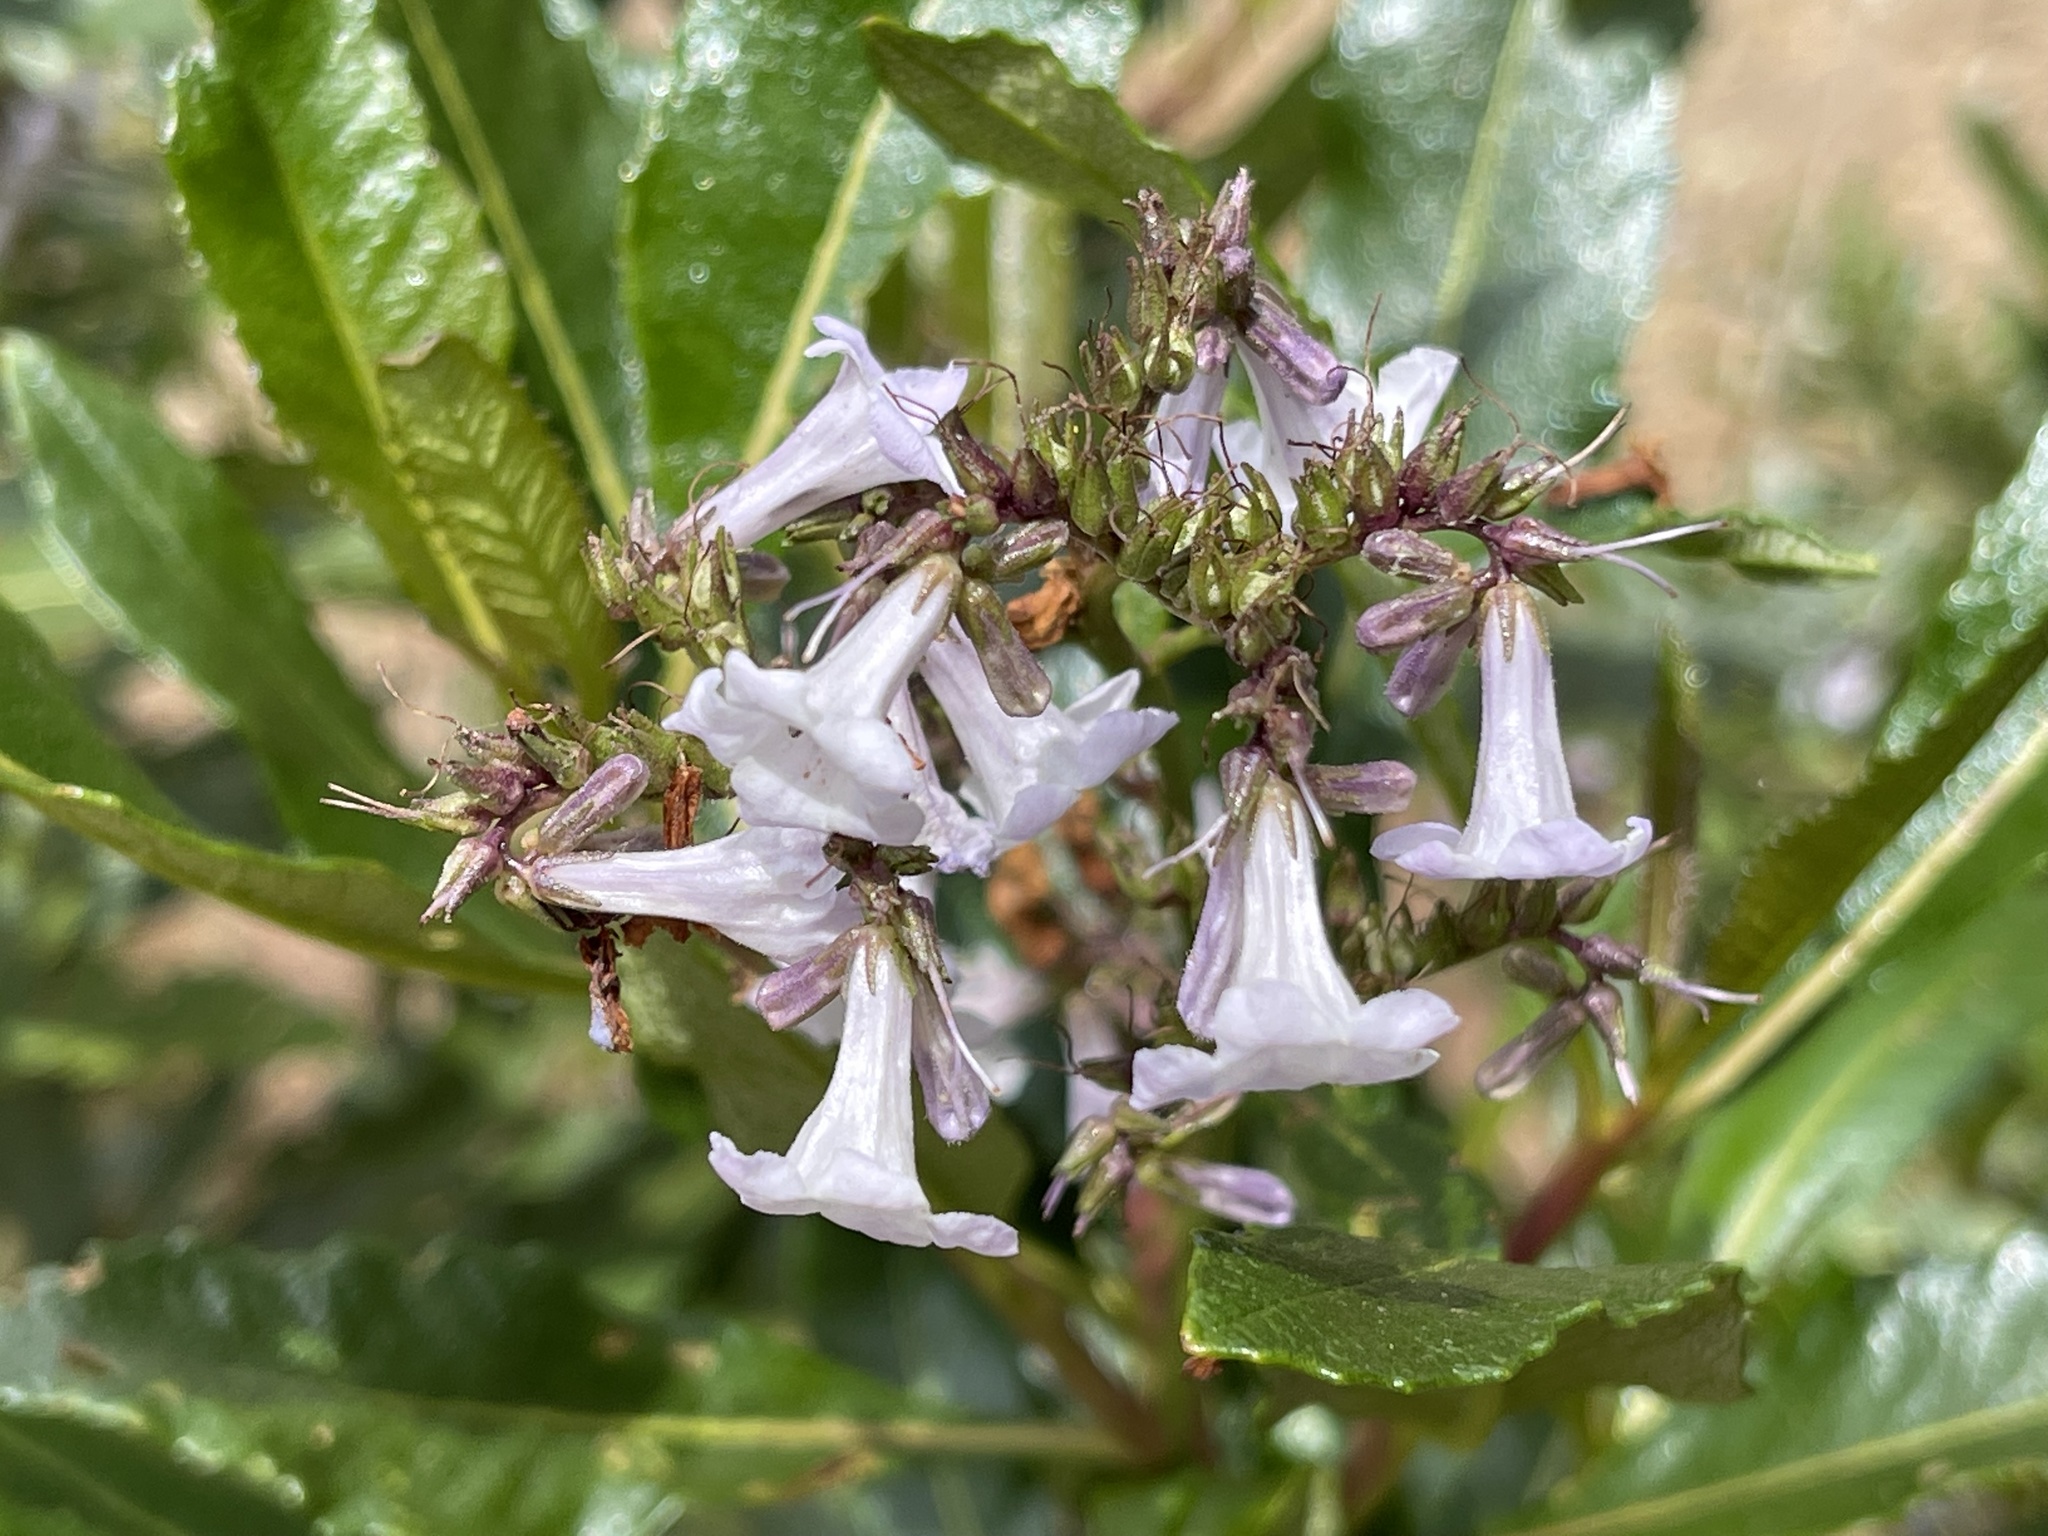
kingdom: Plantae
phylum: Tracheophyta
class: Magnoliopsida
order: Boraginales
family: Namaceae
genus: Eriodictyon
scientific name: Eriodictyon californicum
